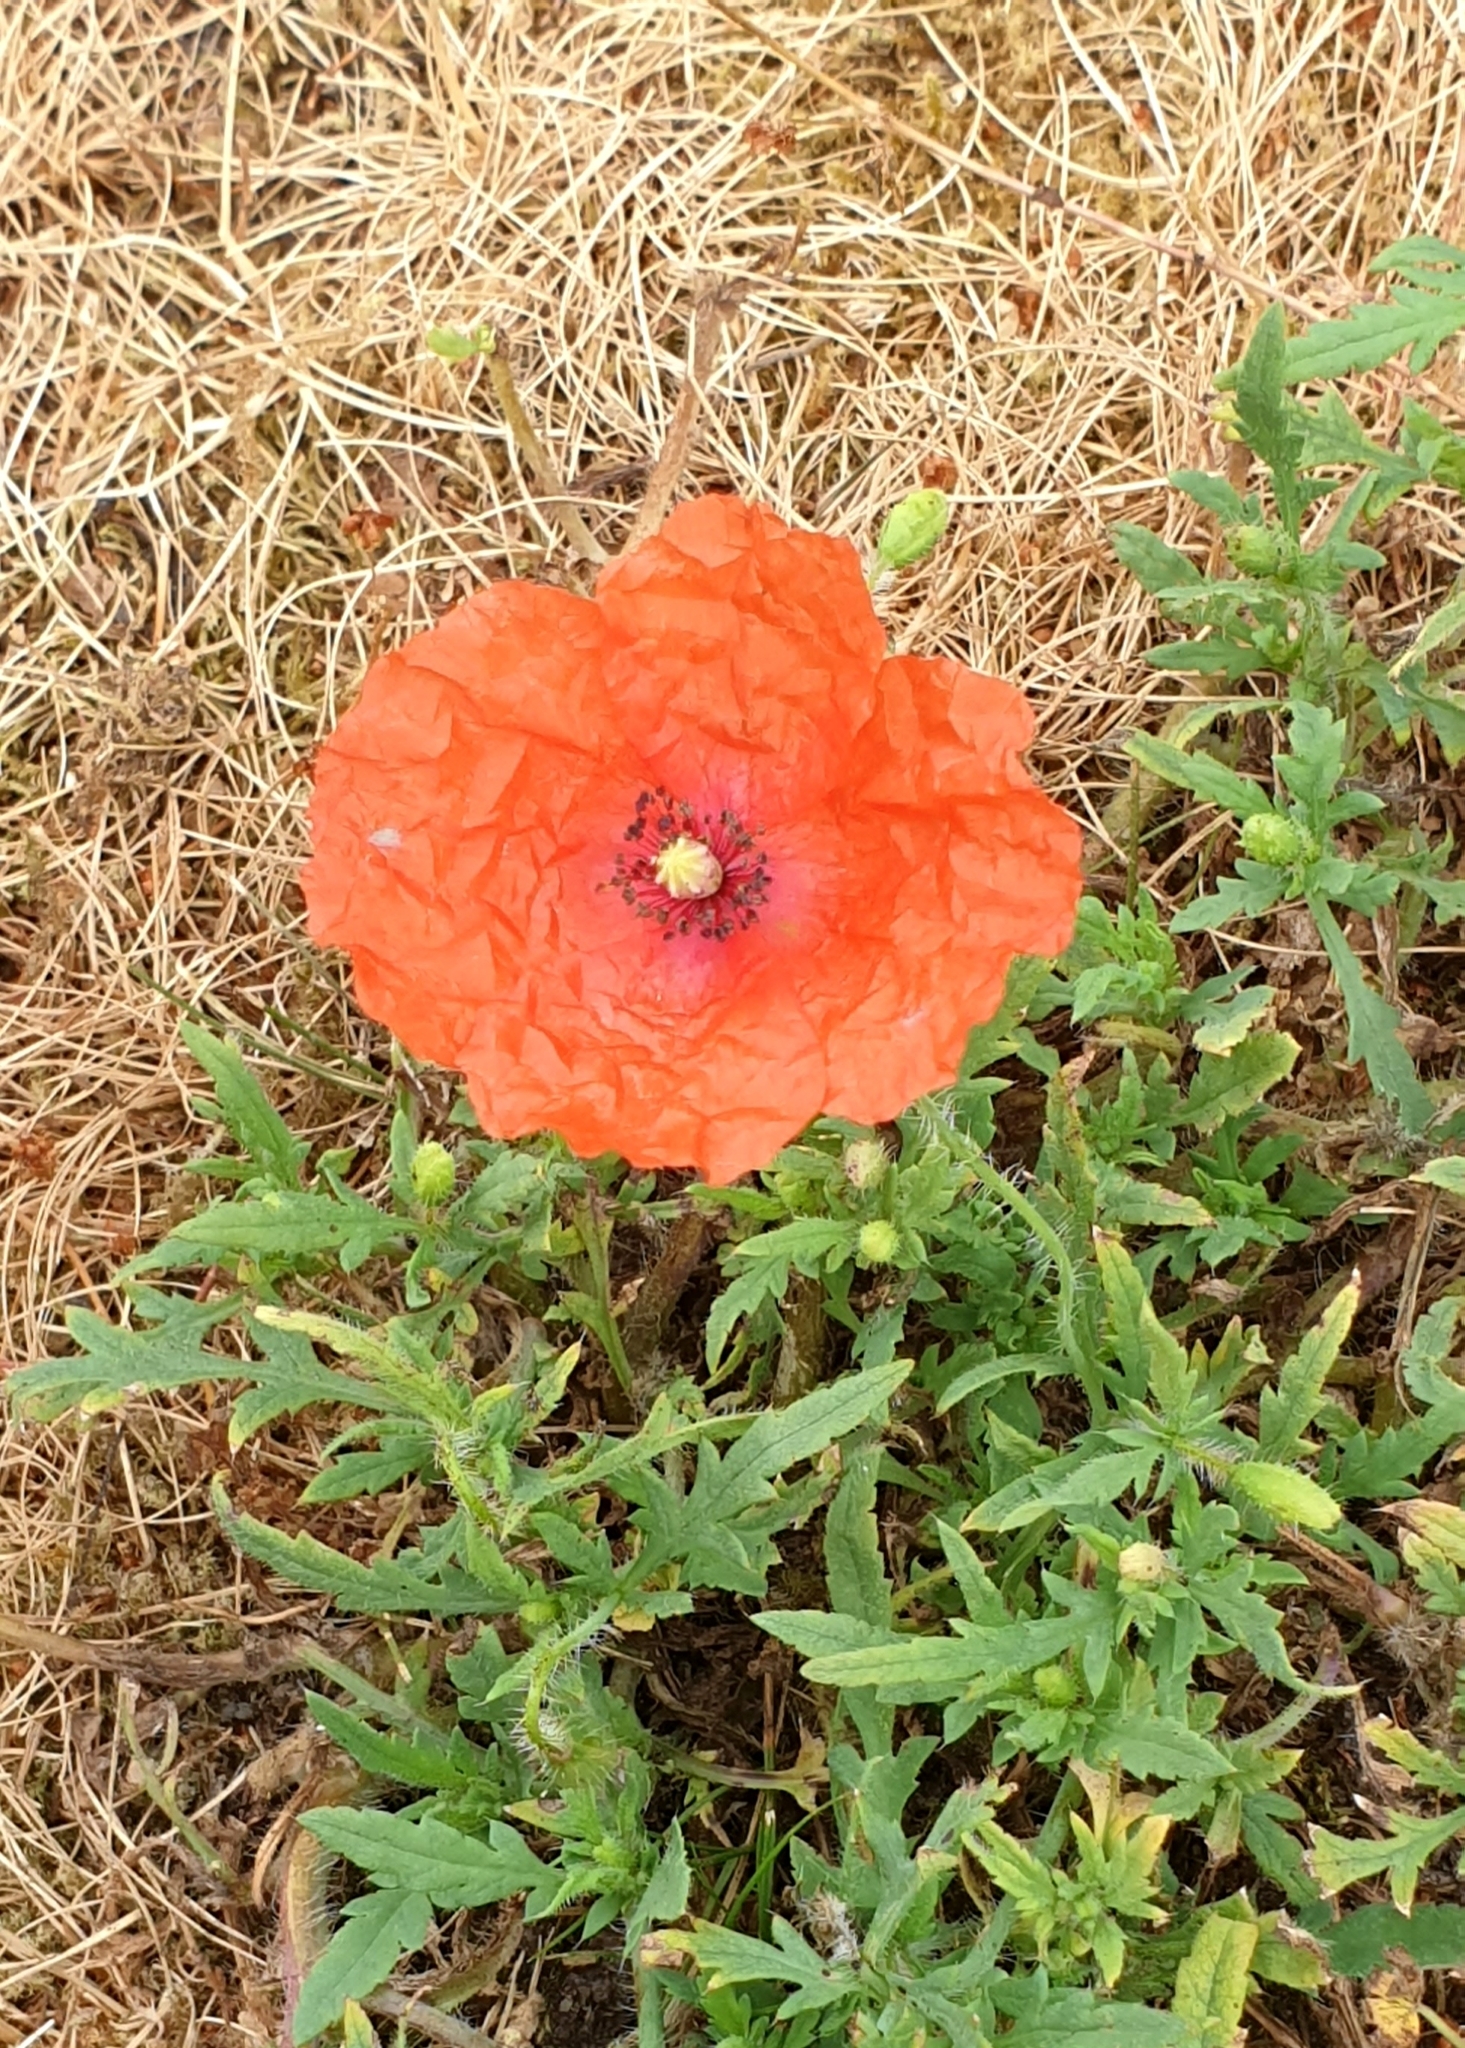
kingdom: Plantae
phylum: Tracheophyta
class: Magnoliopsida
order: Ranunculales
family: Papaveraceae
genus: Papaver
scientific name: Papaver dubium
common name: Long-headed poppy
